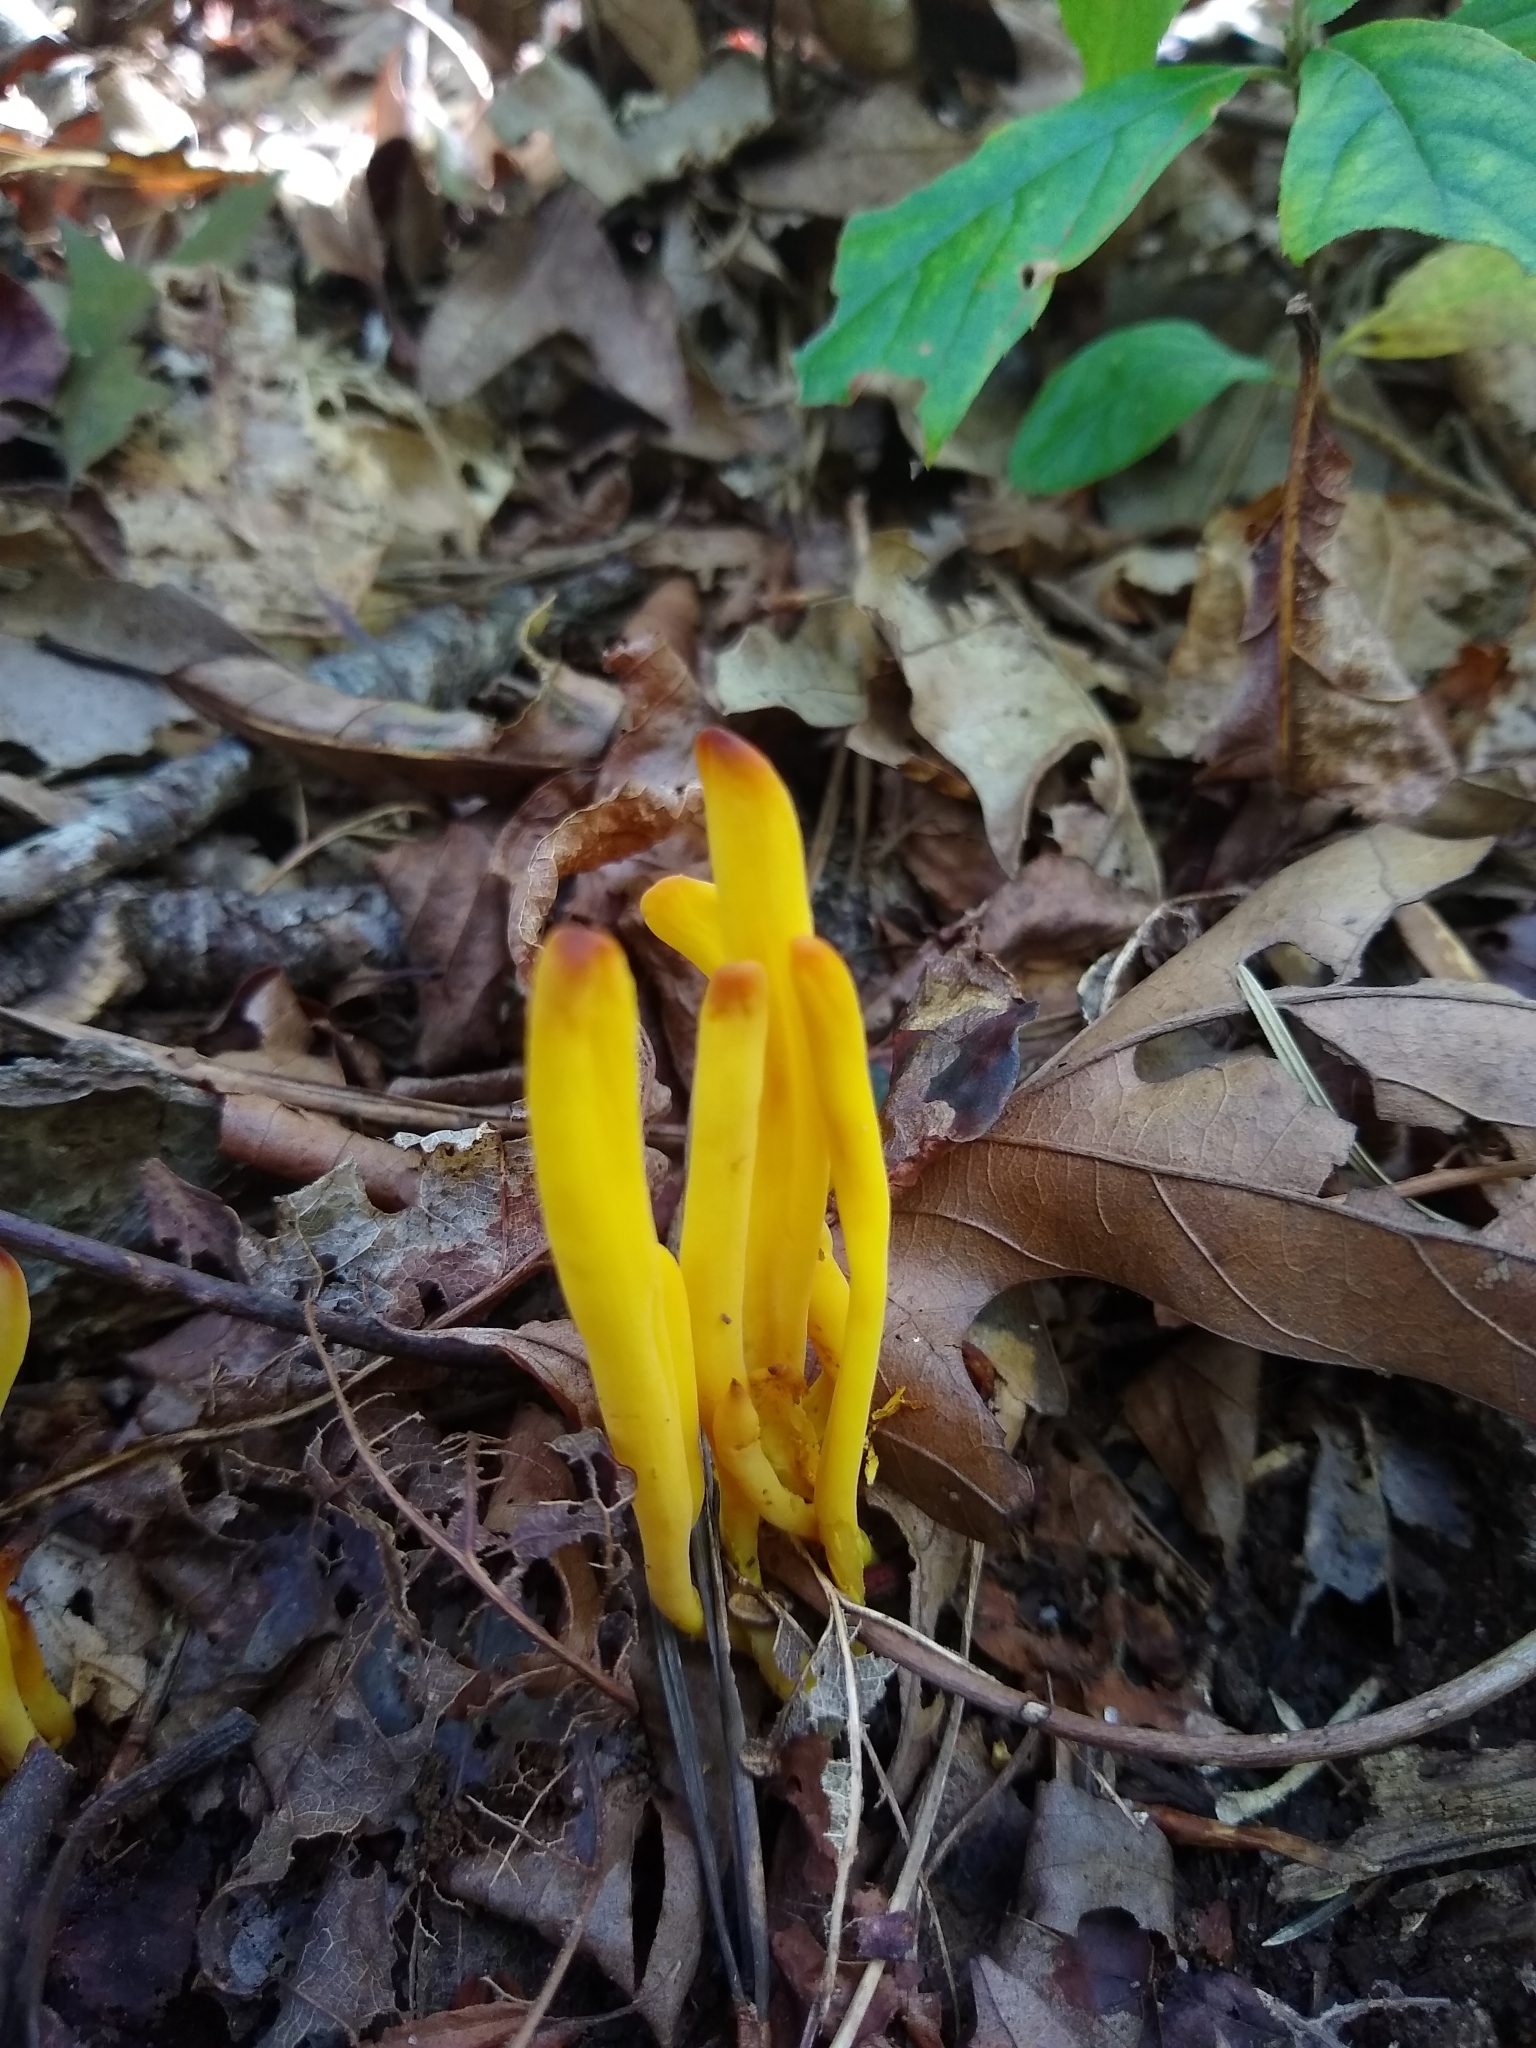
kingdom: Fungi
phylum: Basidiomycota
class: Agaricomycetes
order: Agaricales
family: Clavariaceae
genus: Clavulinopsis
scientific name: Clavulinopsis fusiformis
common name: Golden spindles
